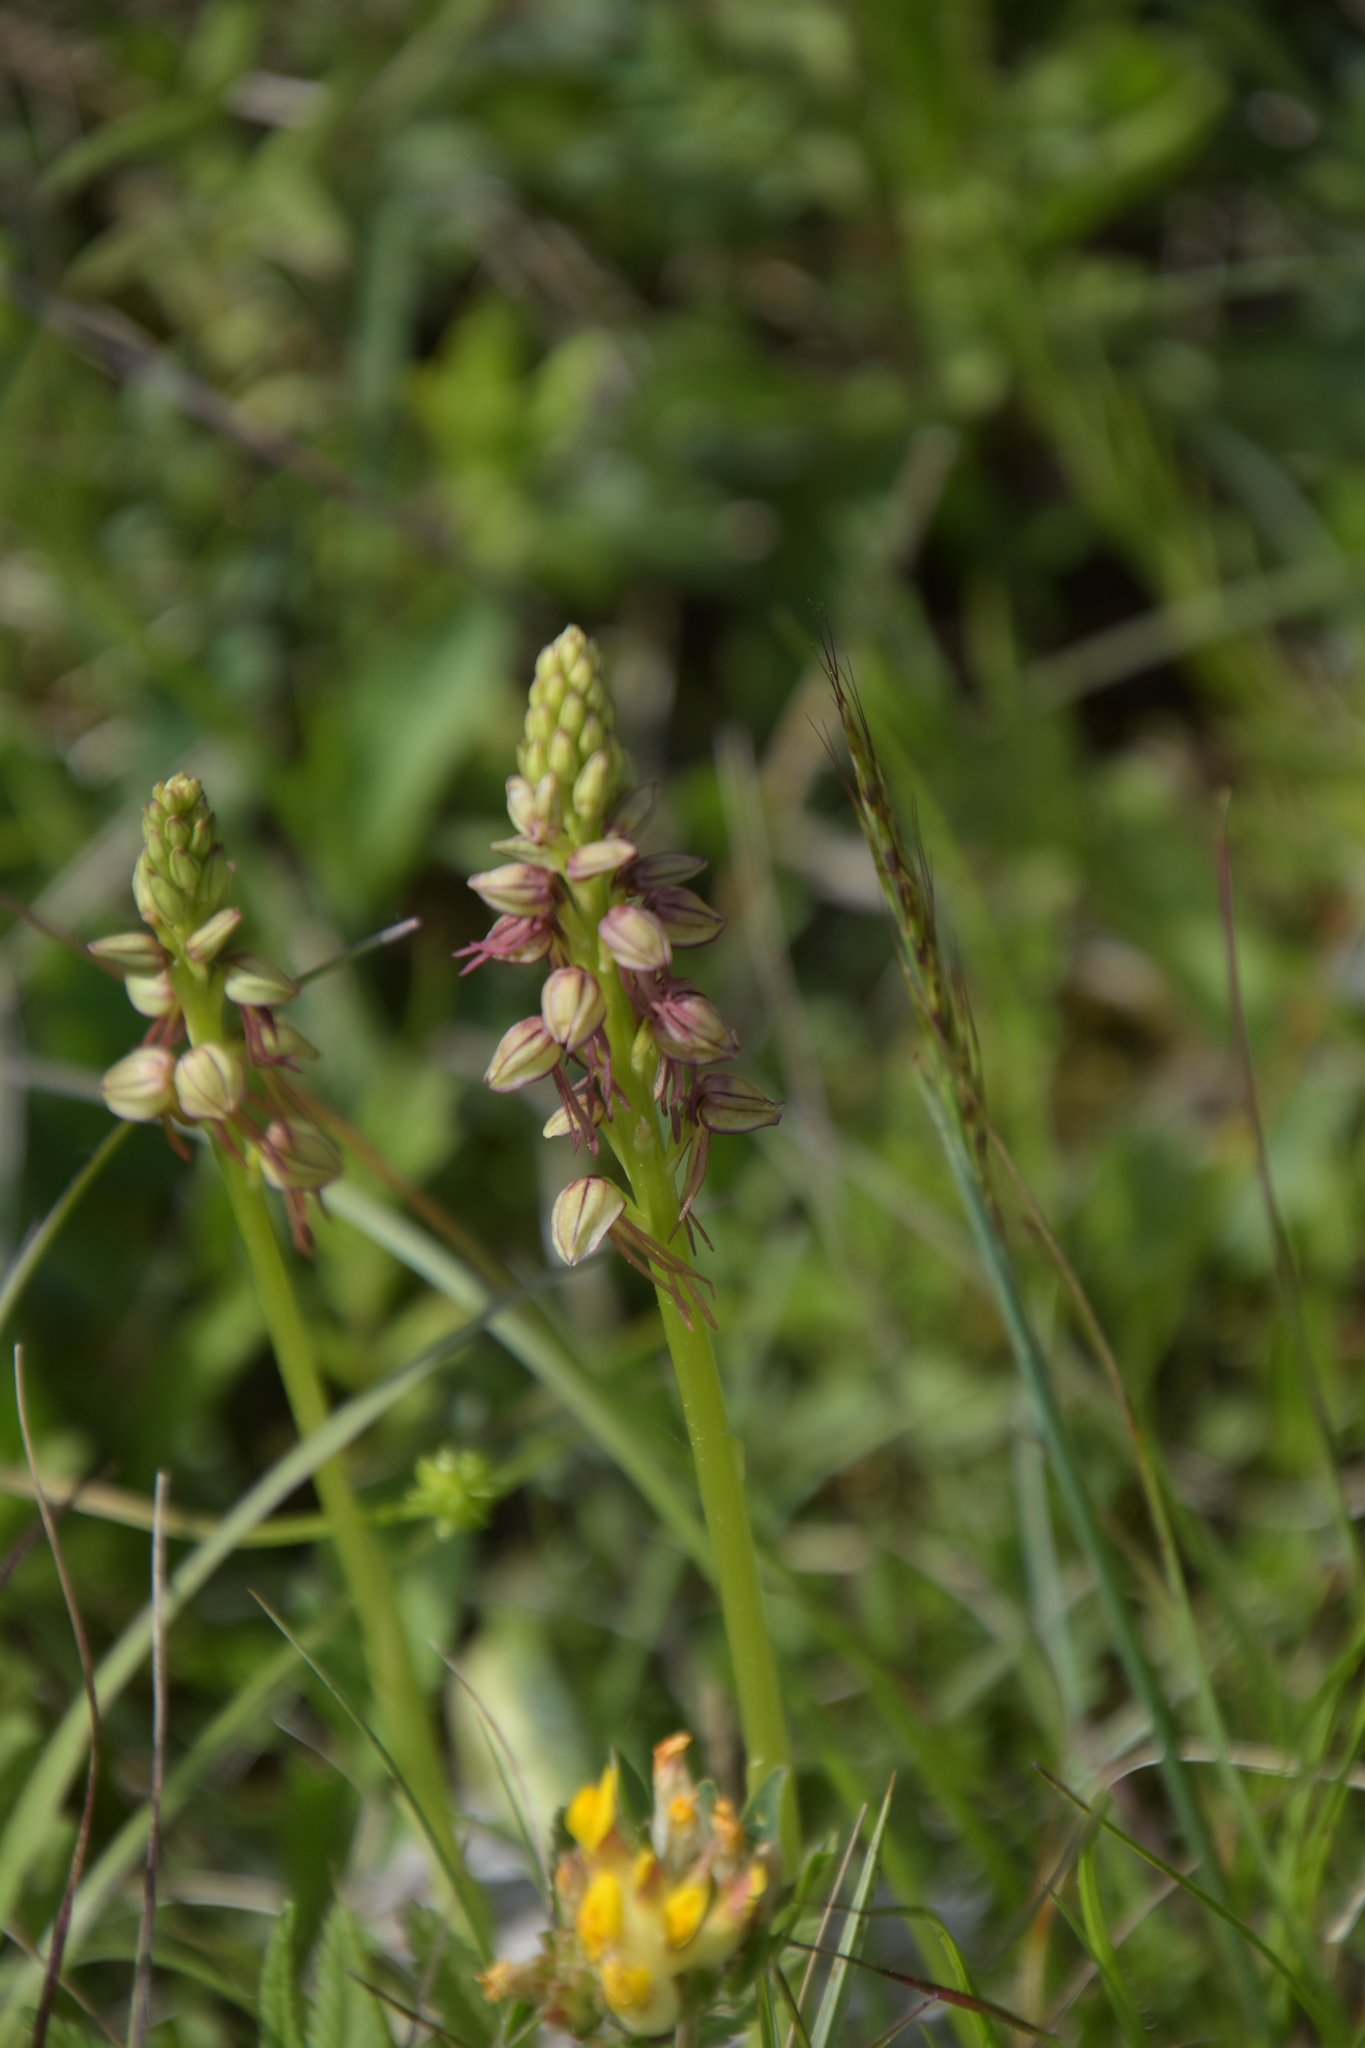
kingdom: Plantae
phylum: Tracheophyta
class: Liliopsida
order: Asparagales
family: Orchidaceae
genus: Orchis
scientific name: Orchis anthropophora
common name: Man orchid
